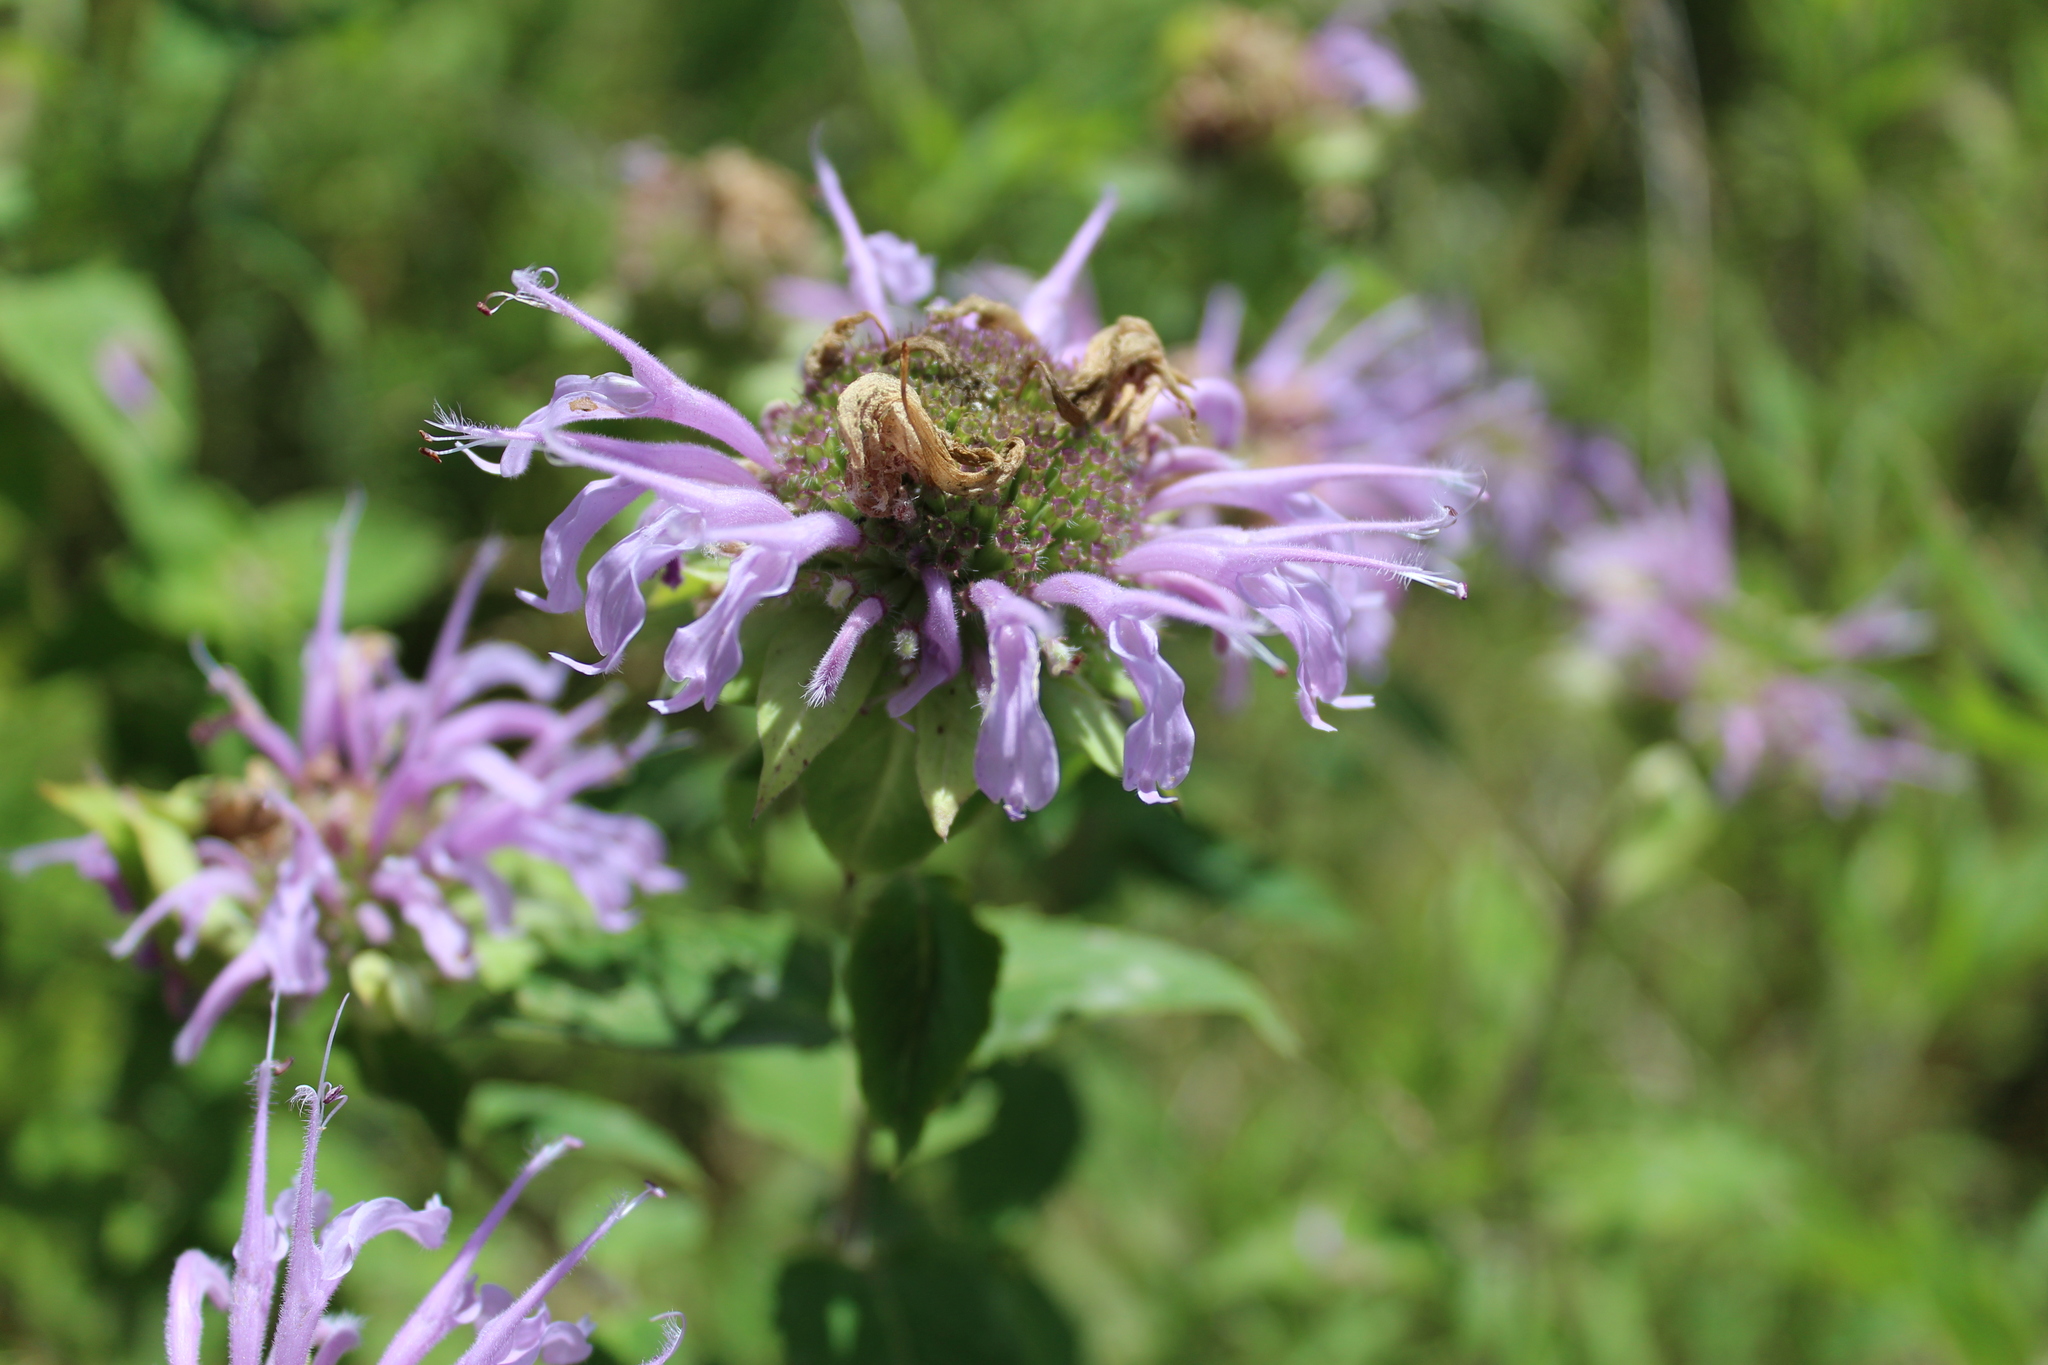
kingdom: Plantae
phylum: Tracheophyta
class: Magnoliopsida
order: Lamiales
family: Lamiaceae
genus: Monarda
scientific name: Monarda fistulosa
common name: Purple beebalm
